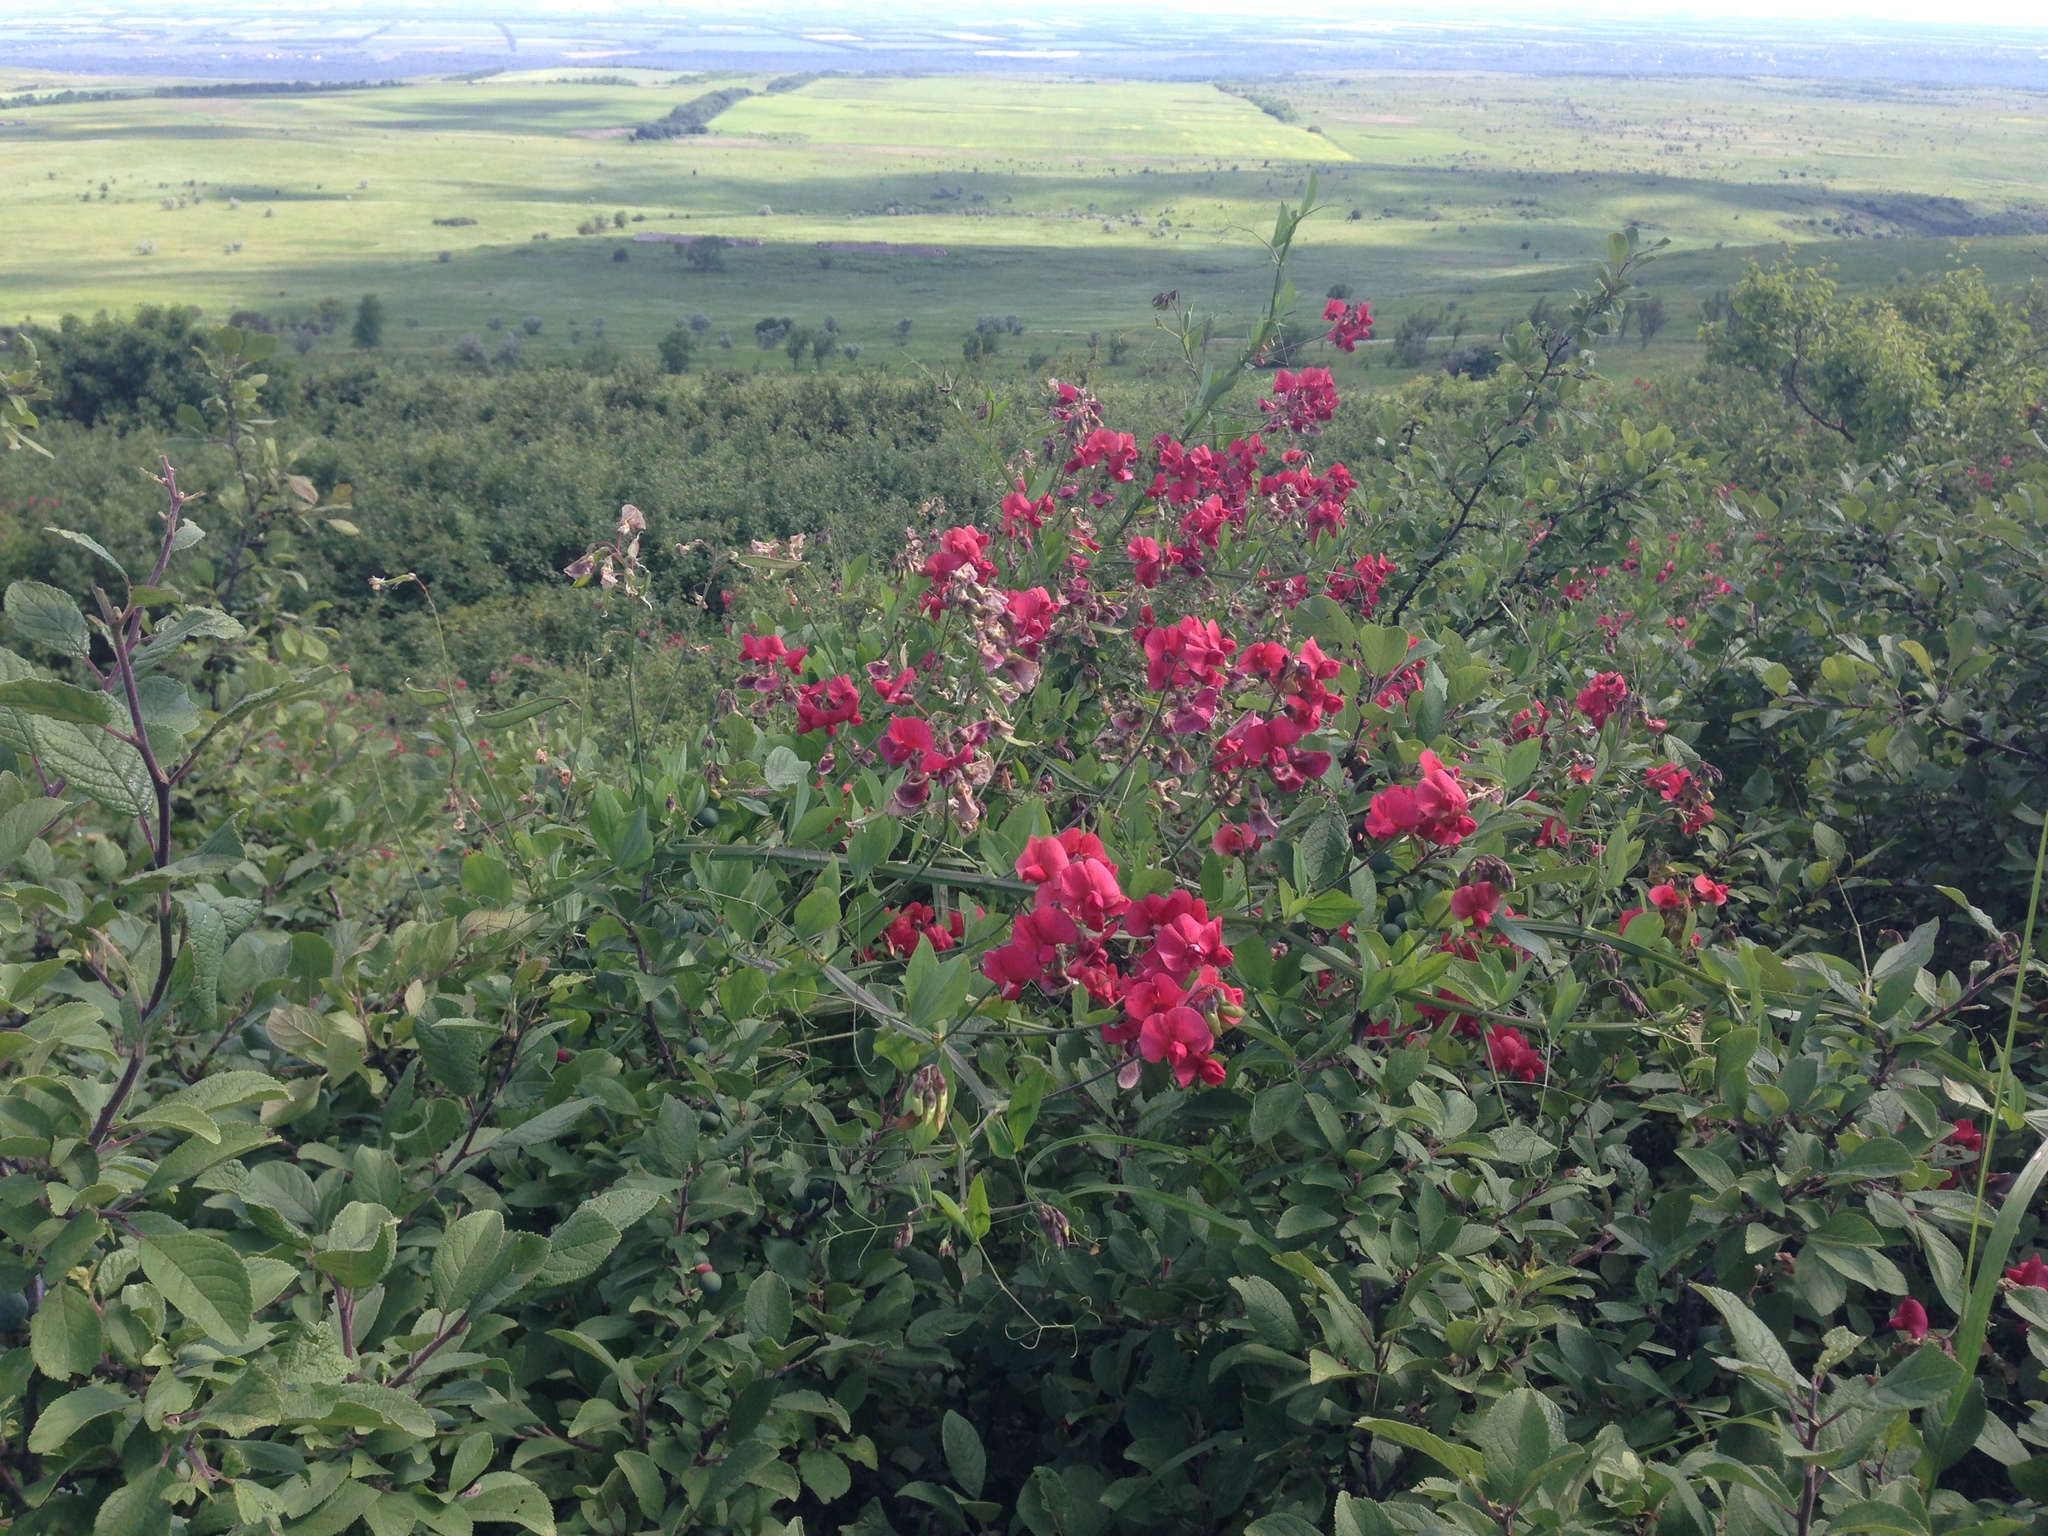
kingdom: Plantae
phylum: Tracheophyta
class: Magnoliopsida
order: Fabales
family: Fabaceae
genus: Lathyrus
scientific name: Lathyrus rotundifolius
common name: Round-leaf vetchling
